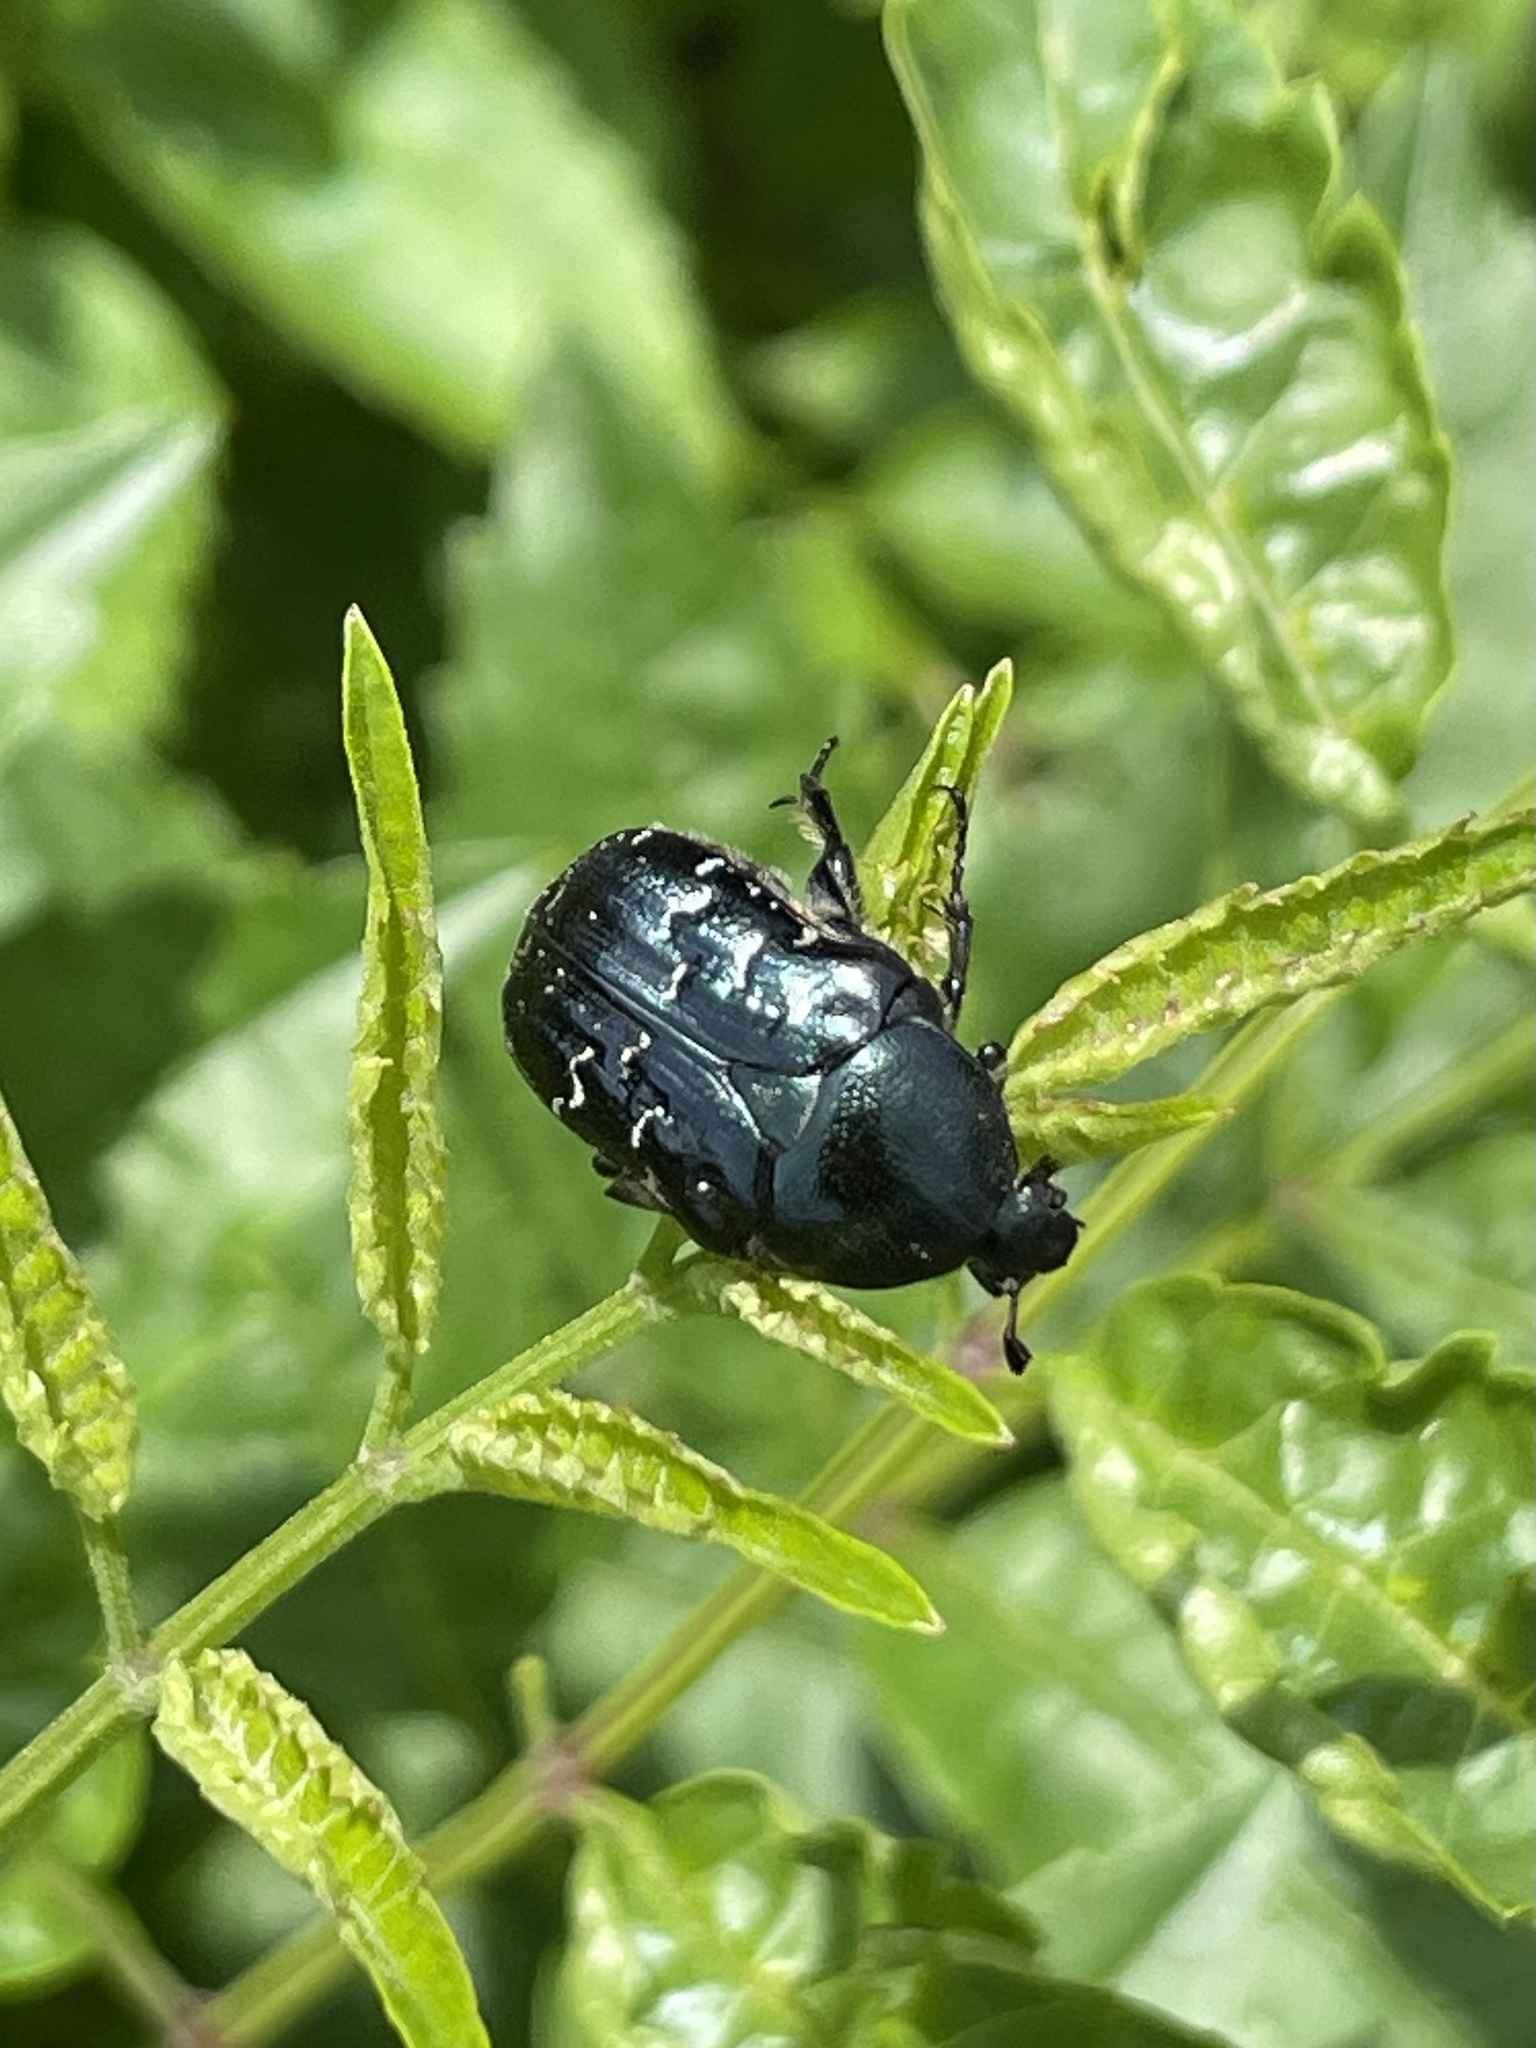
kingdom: Animalia
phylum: Arthropoda
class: Insecta
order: Coleoptera
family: Scarabaeidae
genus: Euphoria
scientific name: Euphoria sepulcralis
